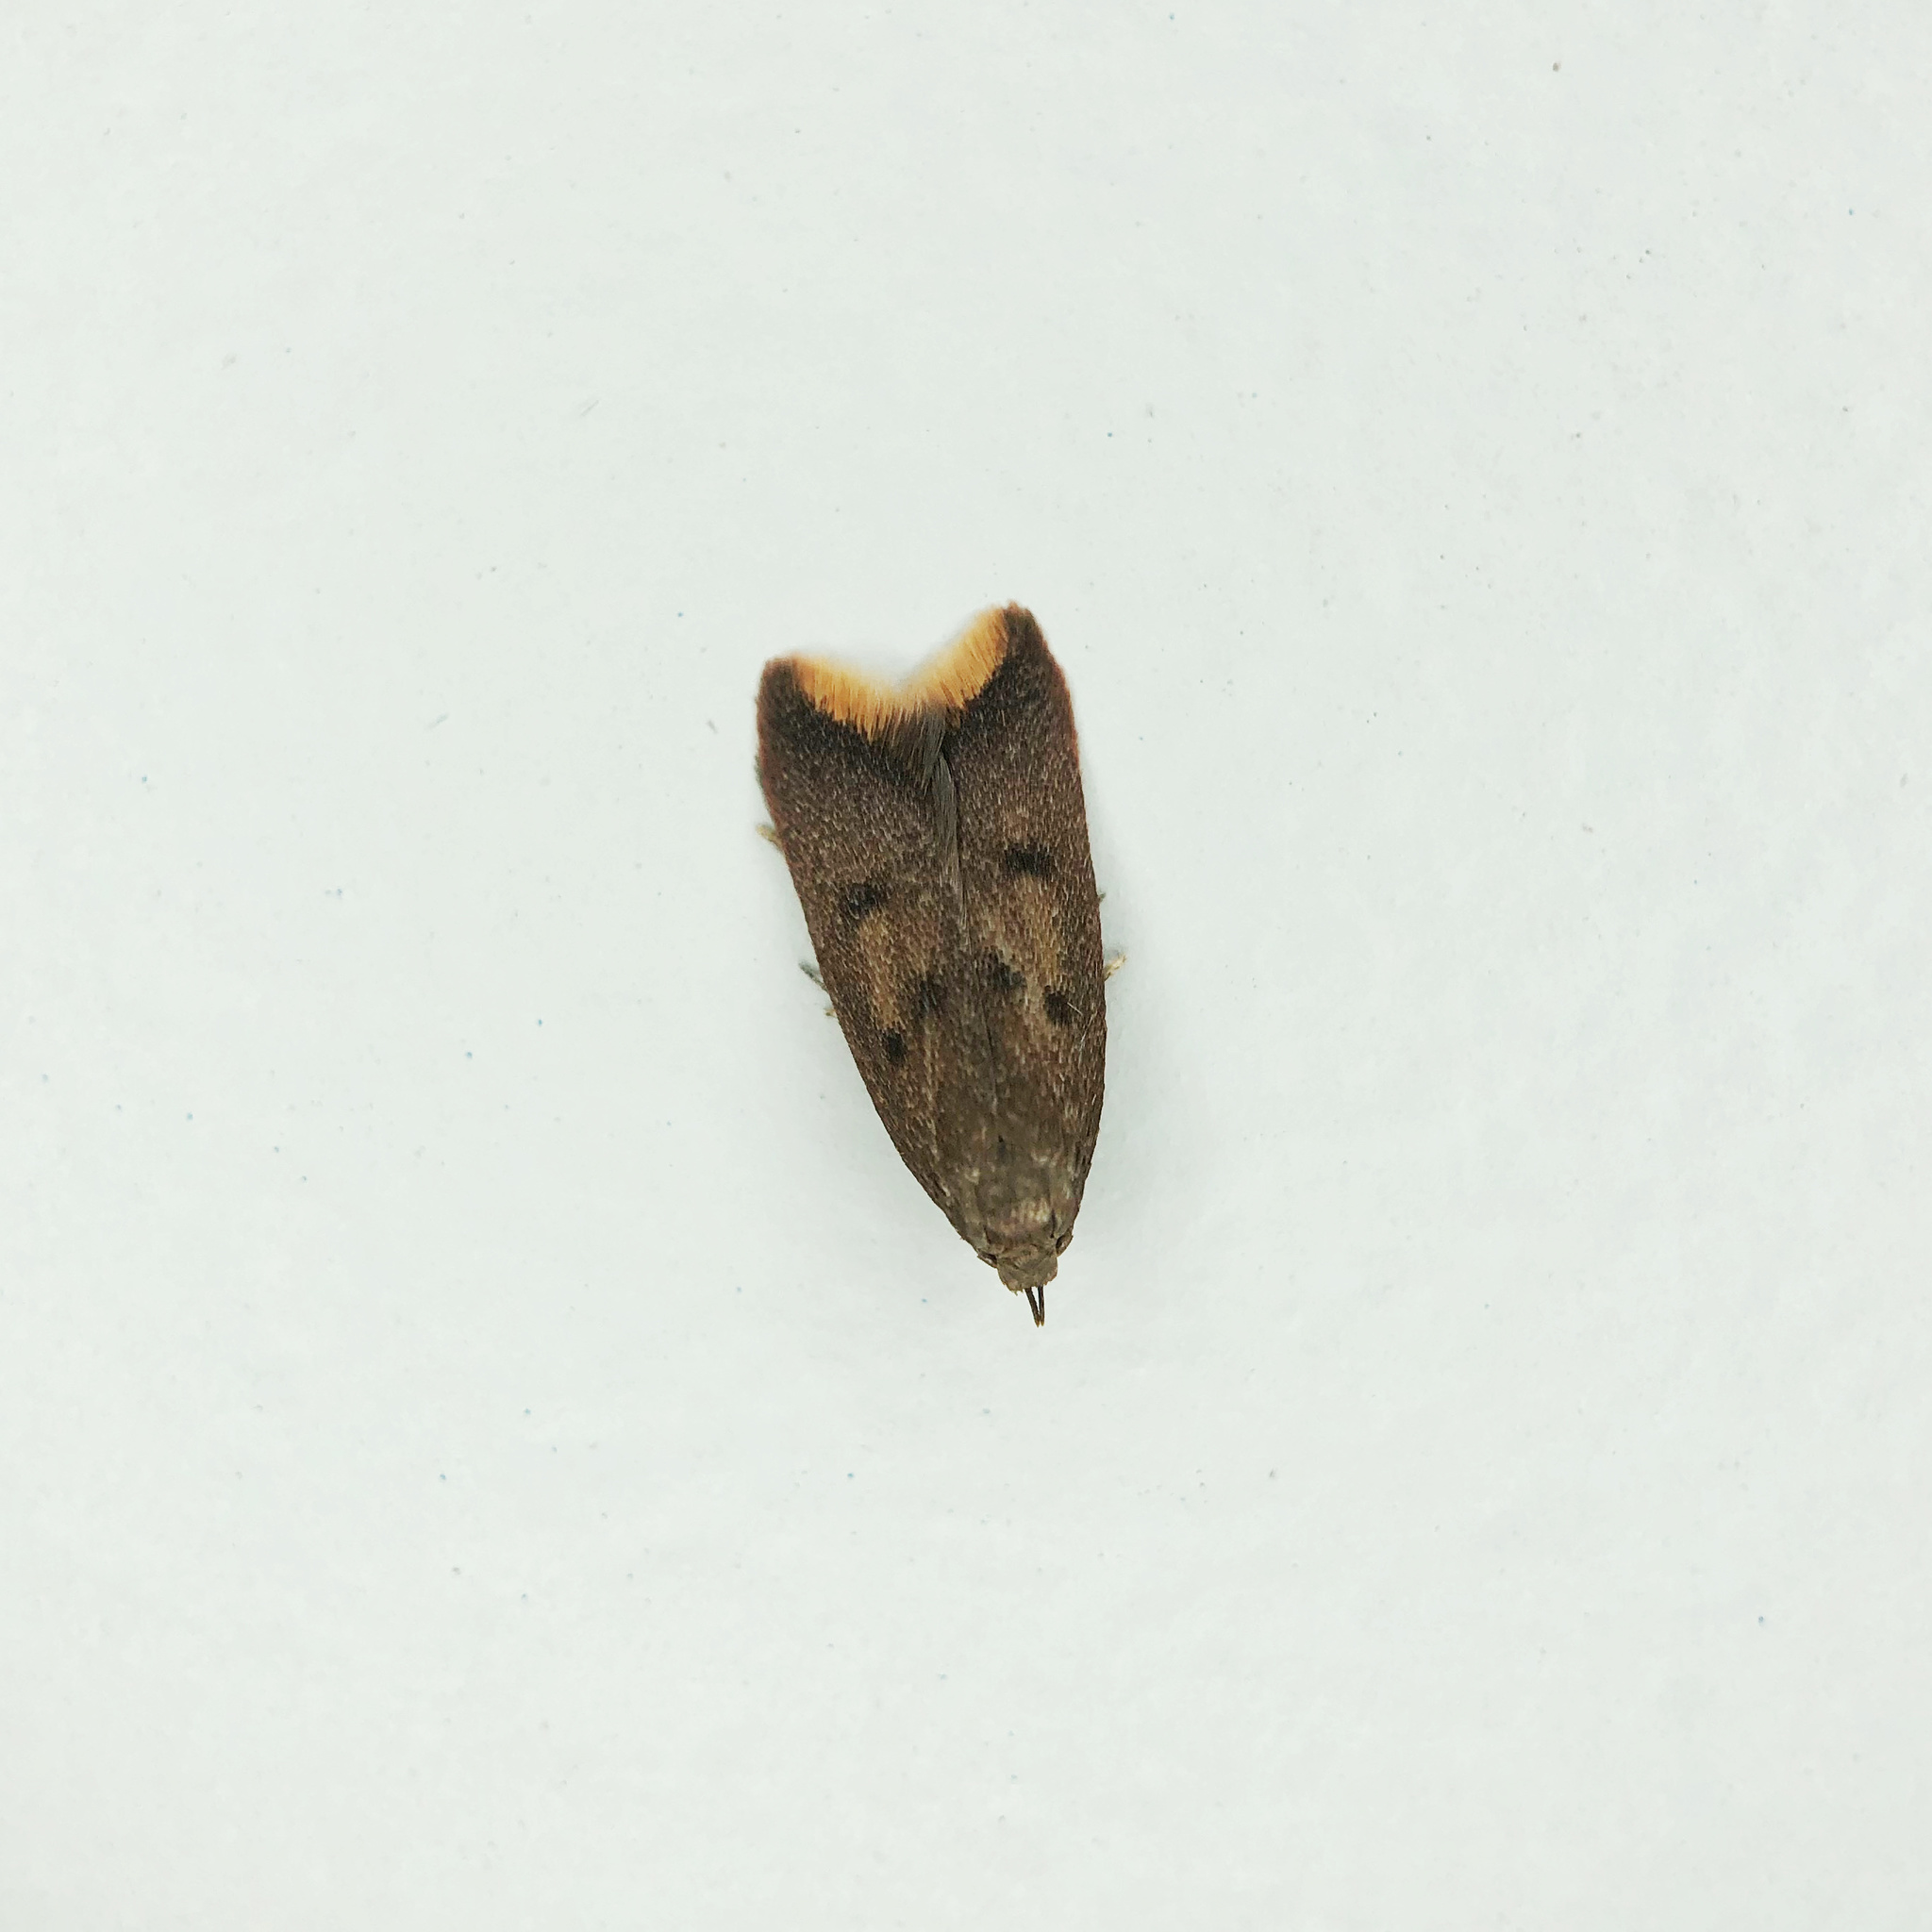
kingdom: Animalia
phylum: Arthropoda
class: Insecta
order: Lepidoptera
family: Oecophoridae
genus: Tachystola
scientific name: Tachystola acroxantha
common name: Ruddy streak
